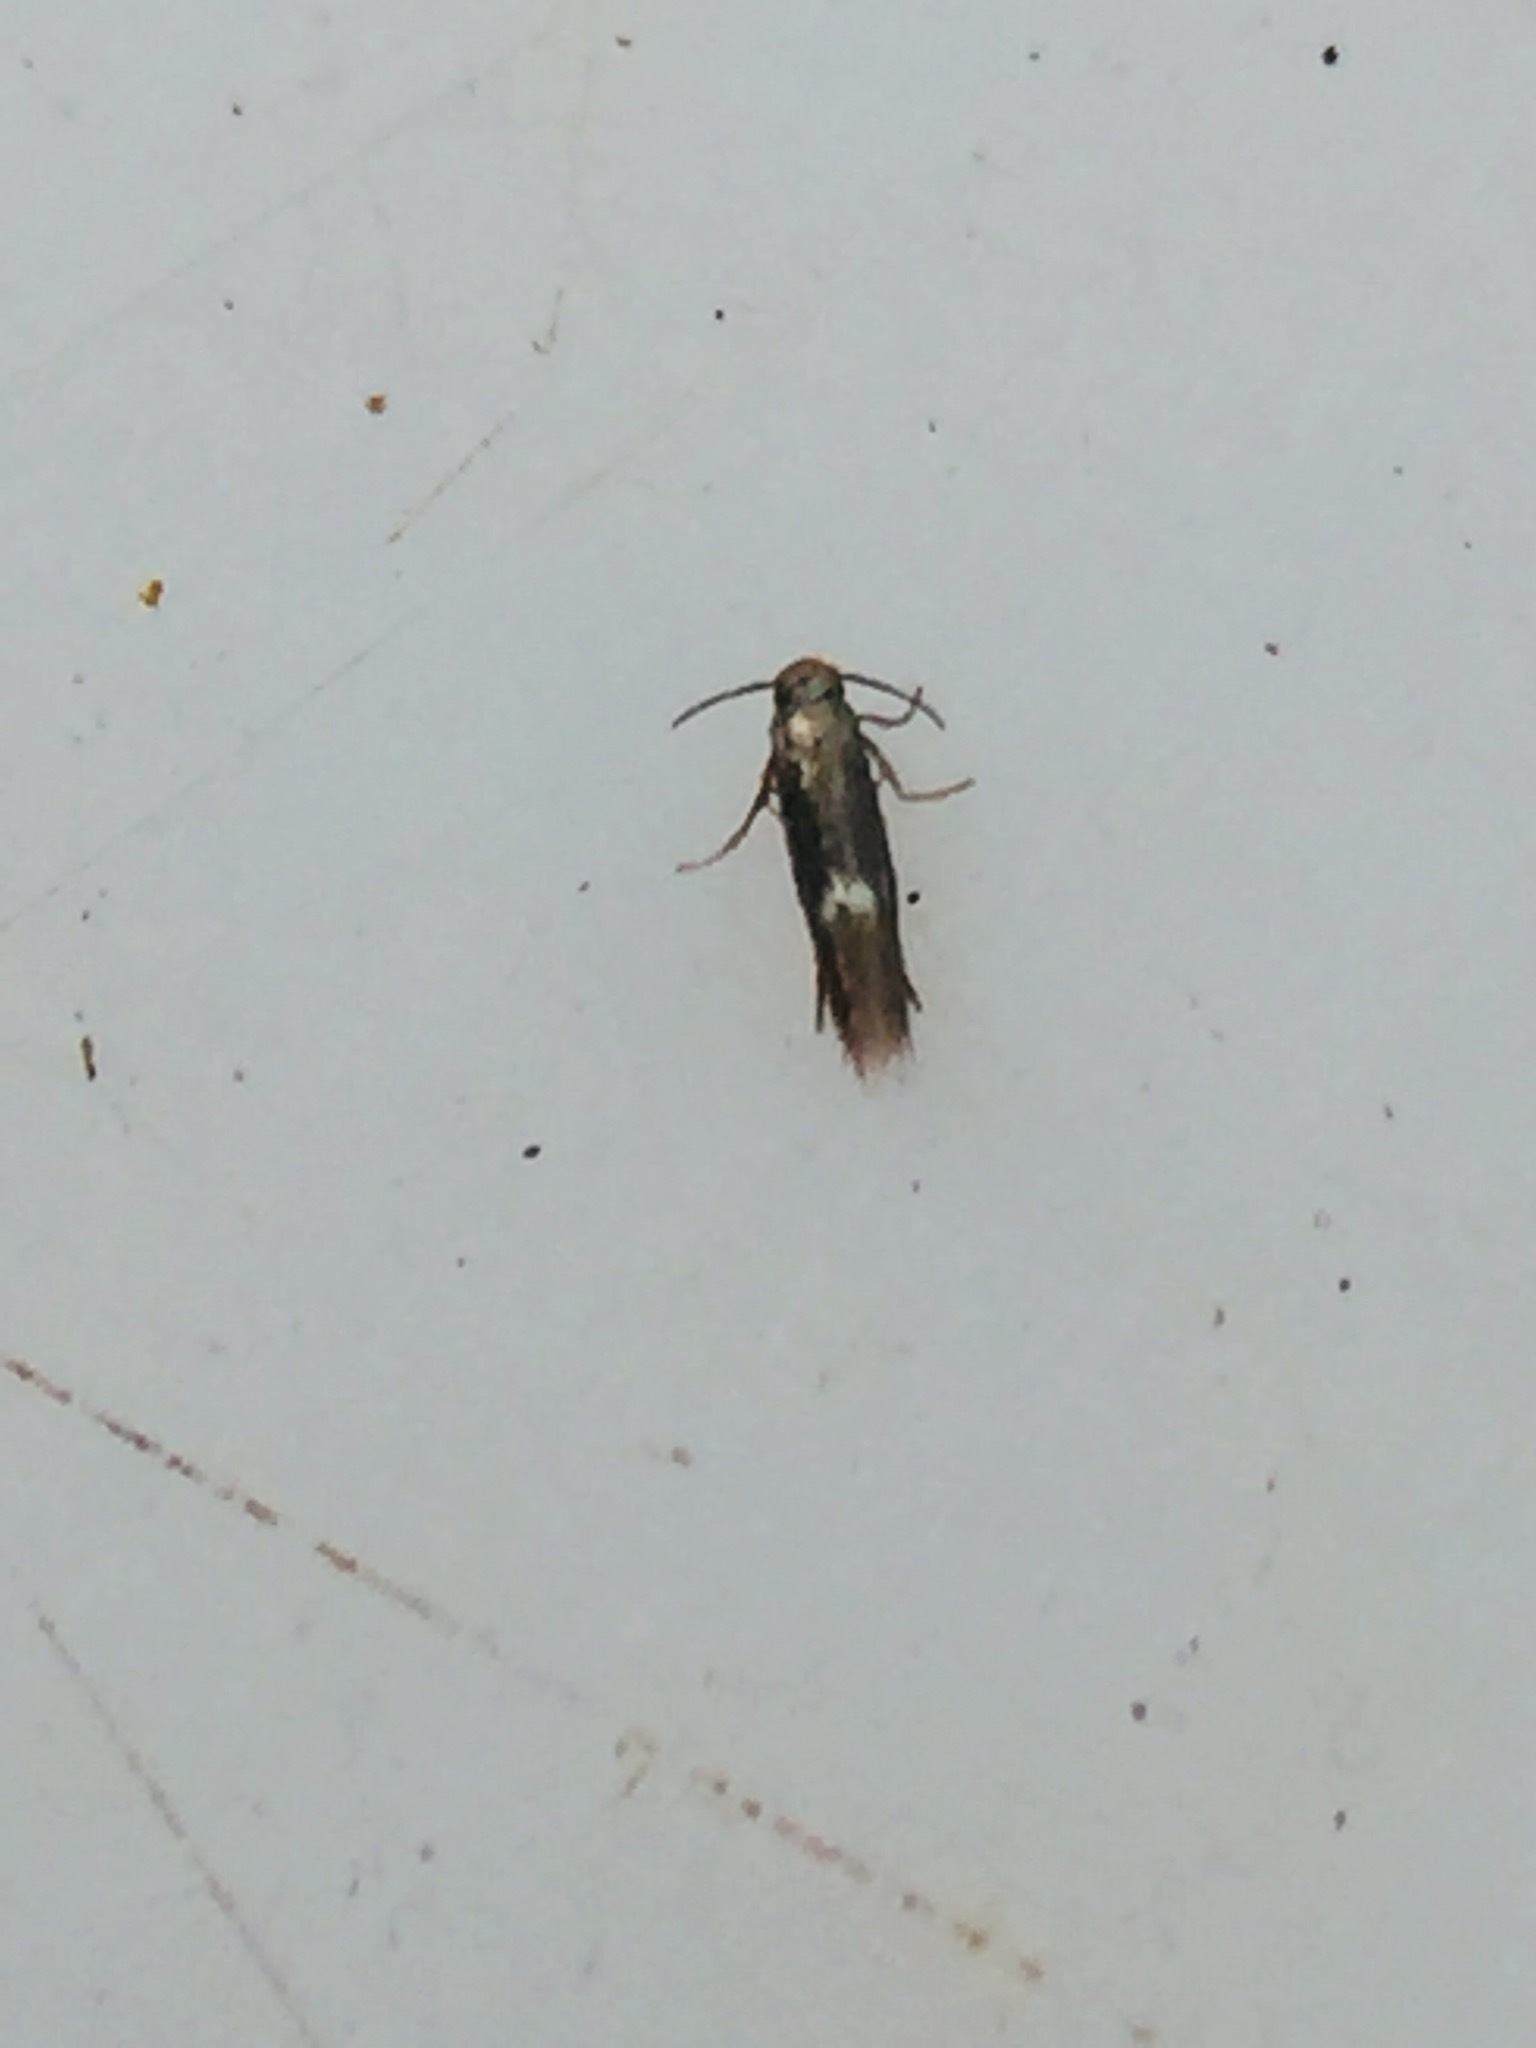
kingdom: Animalia
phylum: Arthropoda
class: Insecta
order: Lepidoptera
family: Heliozelidae
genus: Heliozela
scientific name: Heliozela catoptrias
